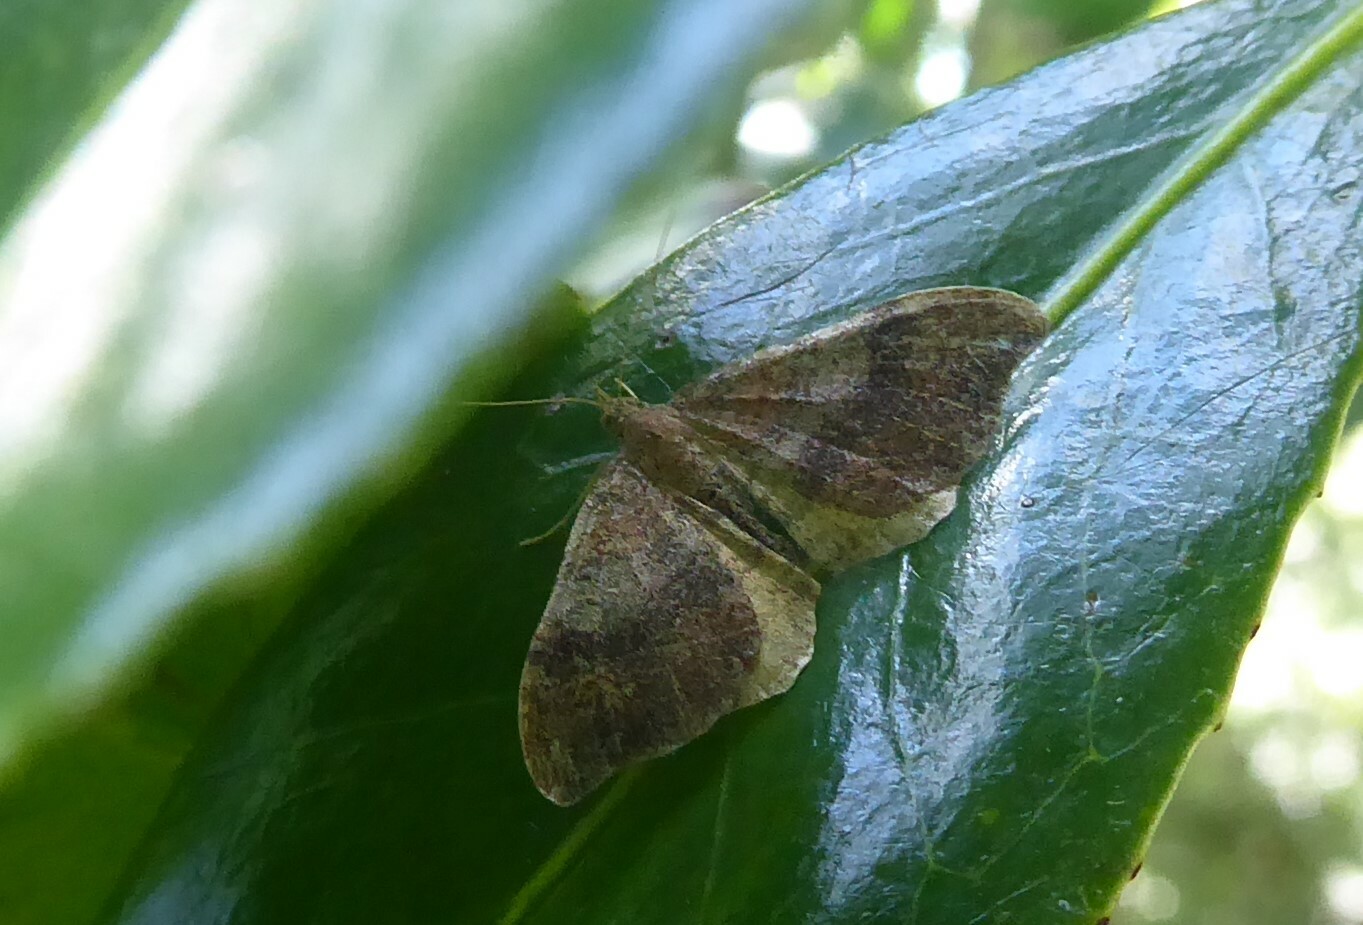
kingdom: Animalia
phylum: Arthropoda
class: Insecta
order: Lepidoptera
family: Geometridae
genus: Homodotis
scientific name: Homodotis megaspilata
